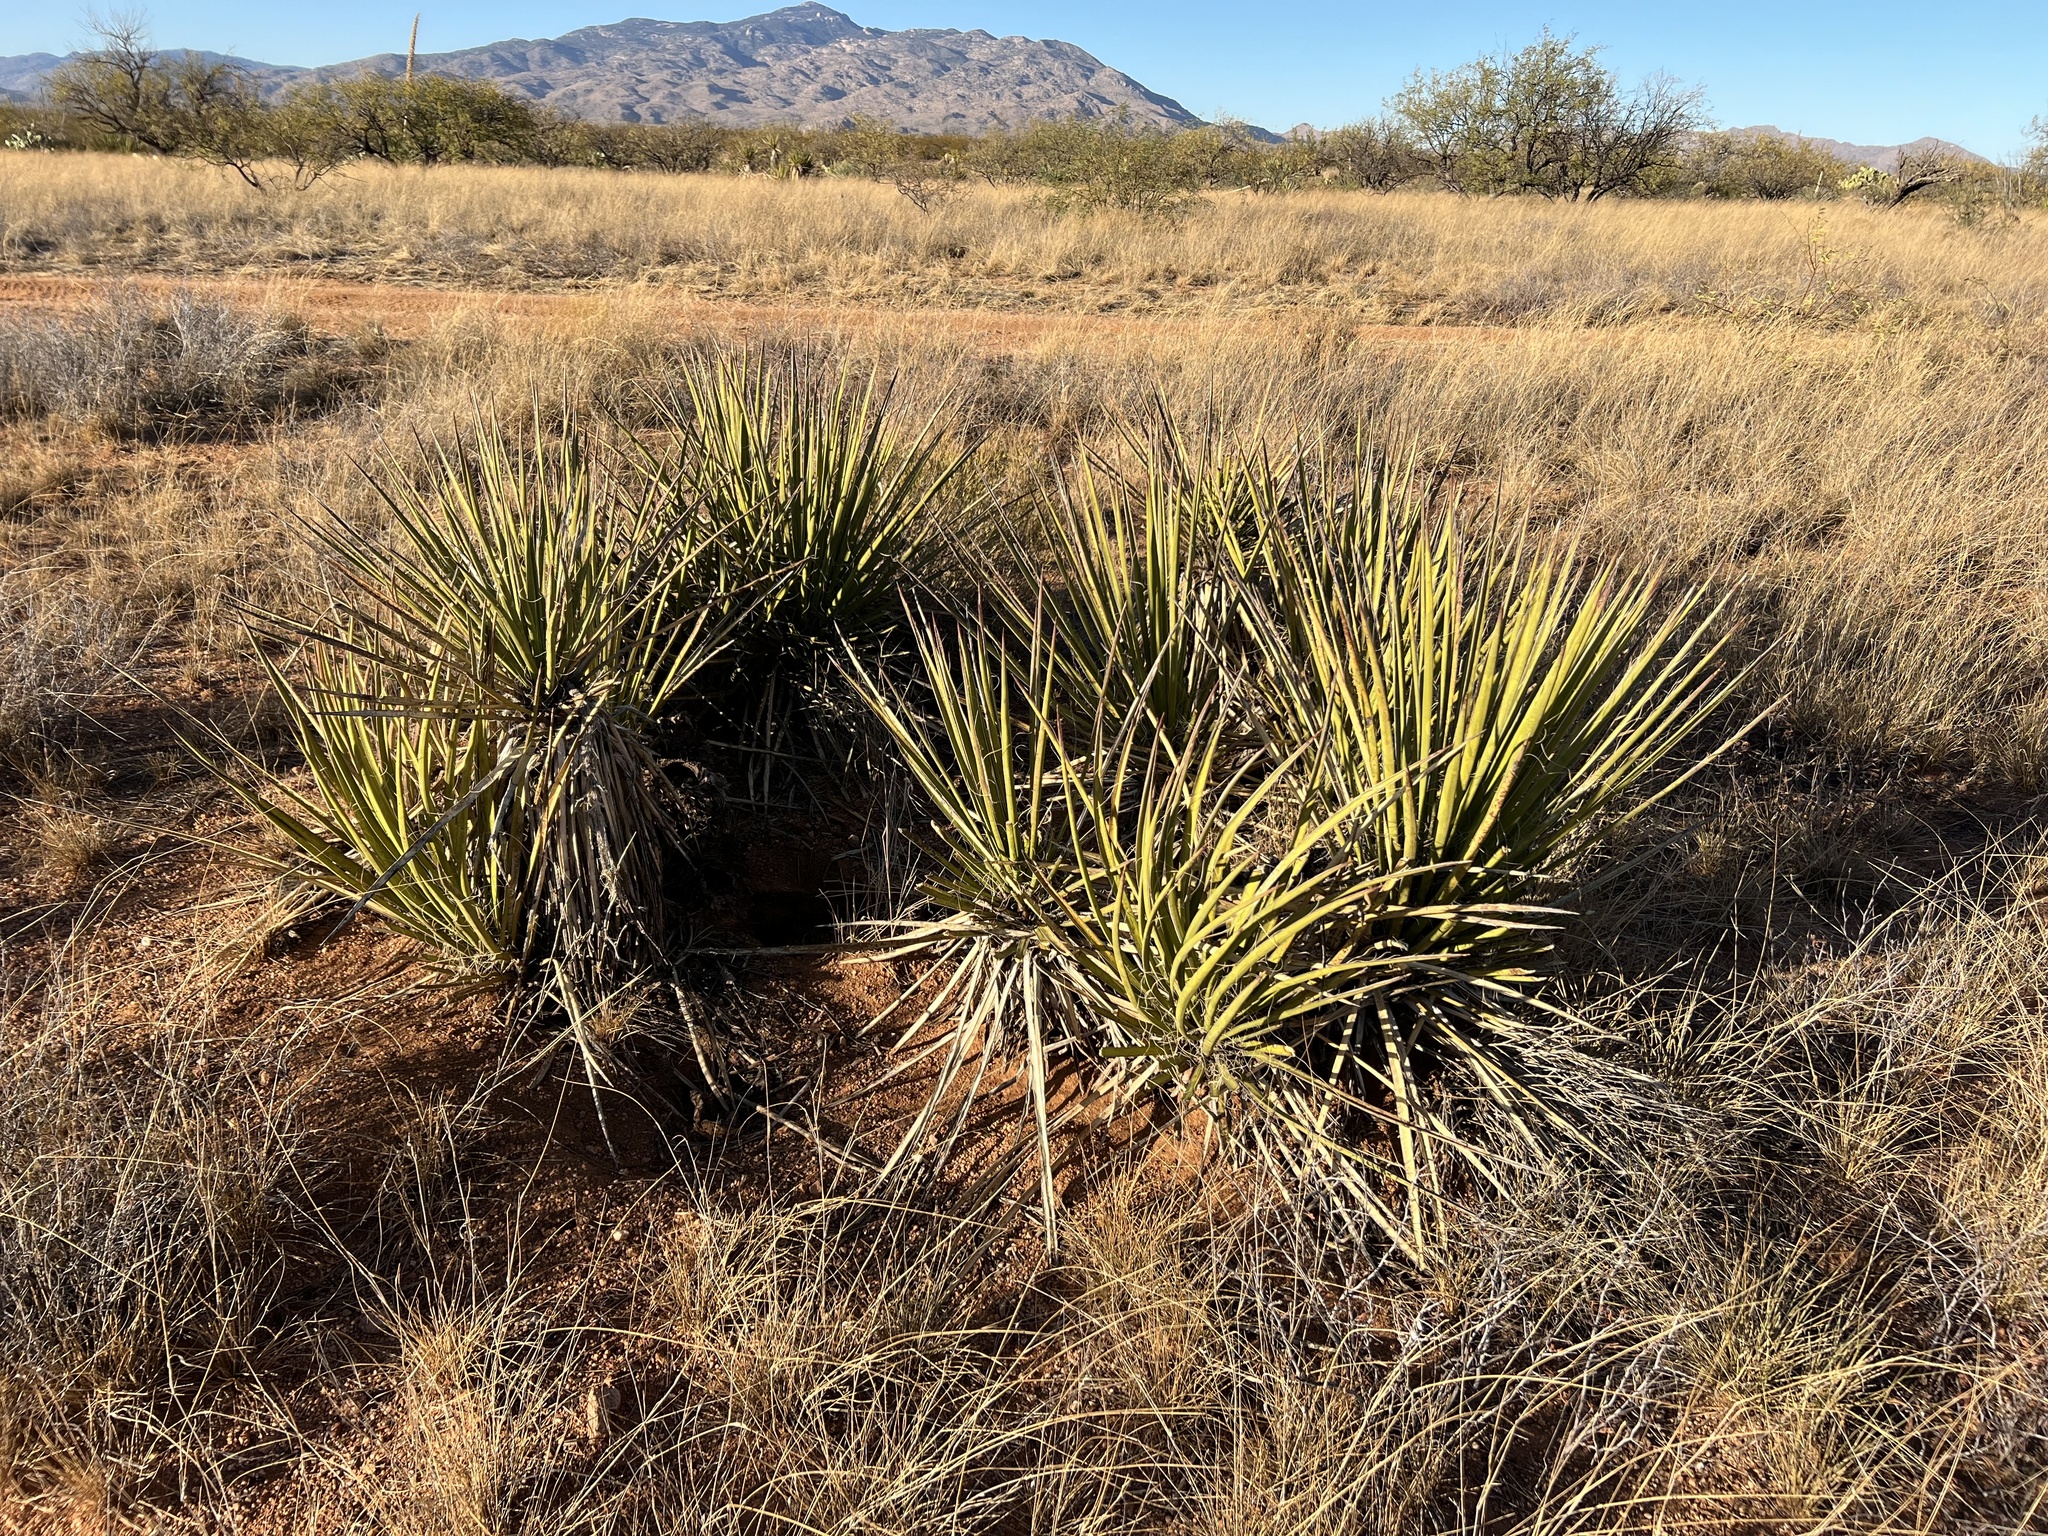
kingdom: Plantae
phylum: Tracheophyta
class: Liliopsida
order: Asparagales
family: Asparagaceae
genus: Yucca
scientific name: Yucca baccata
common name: Banana yucca
